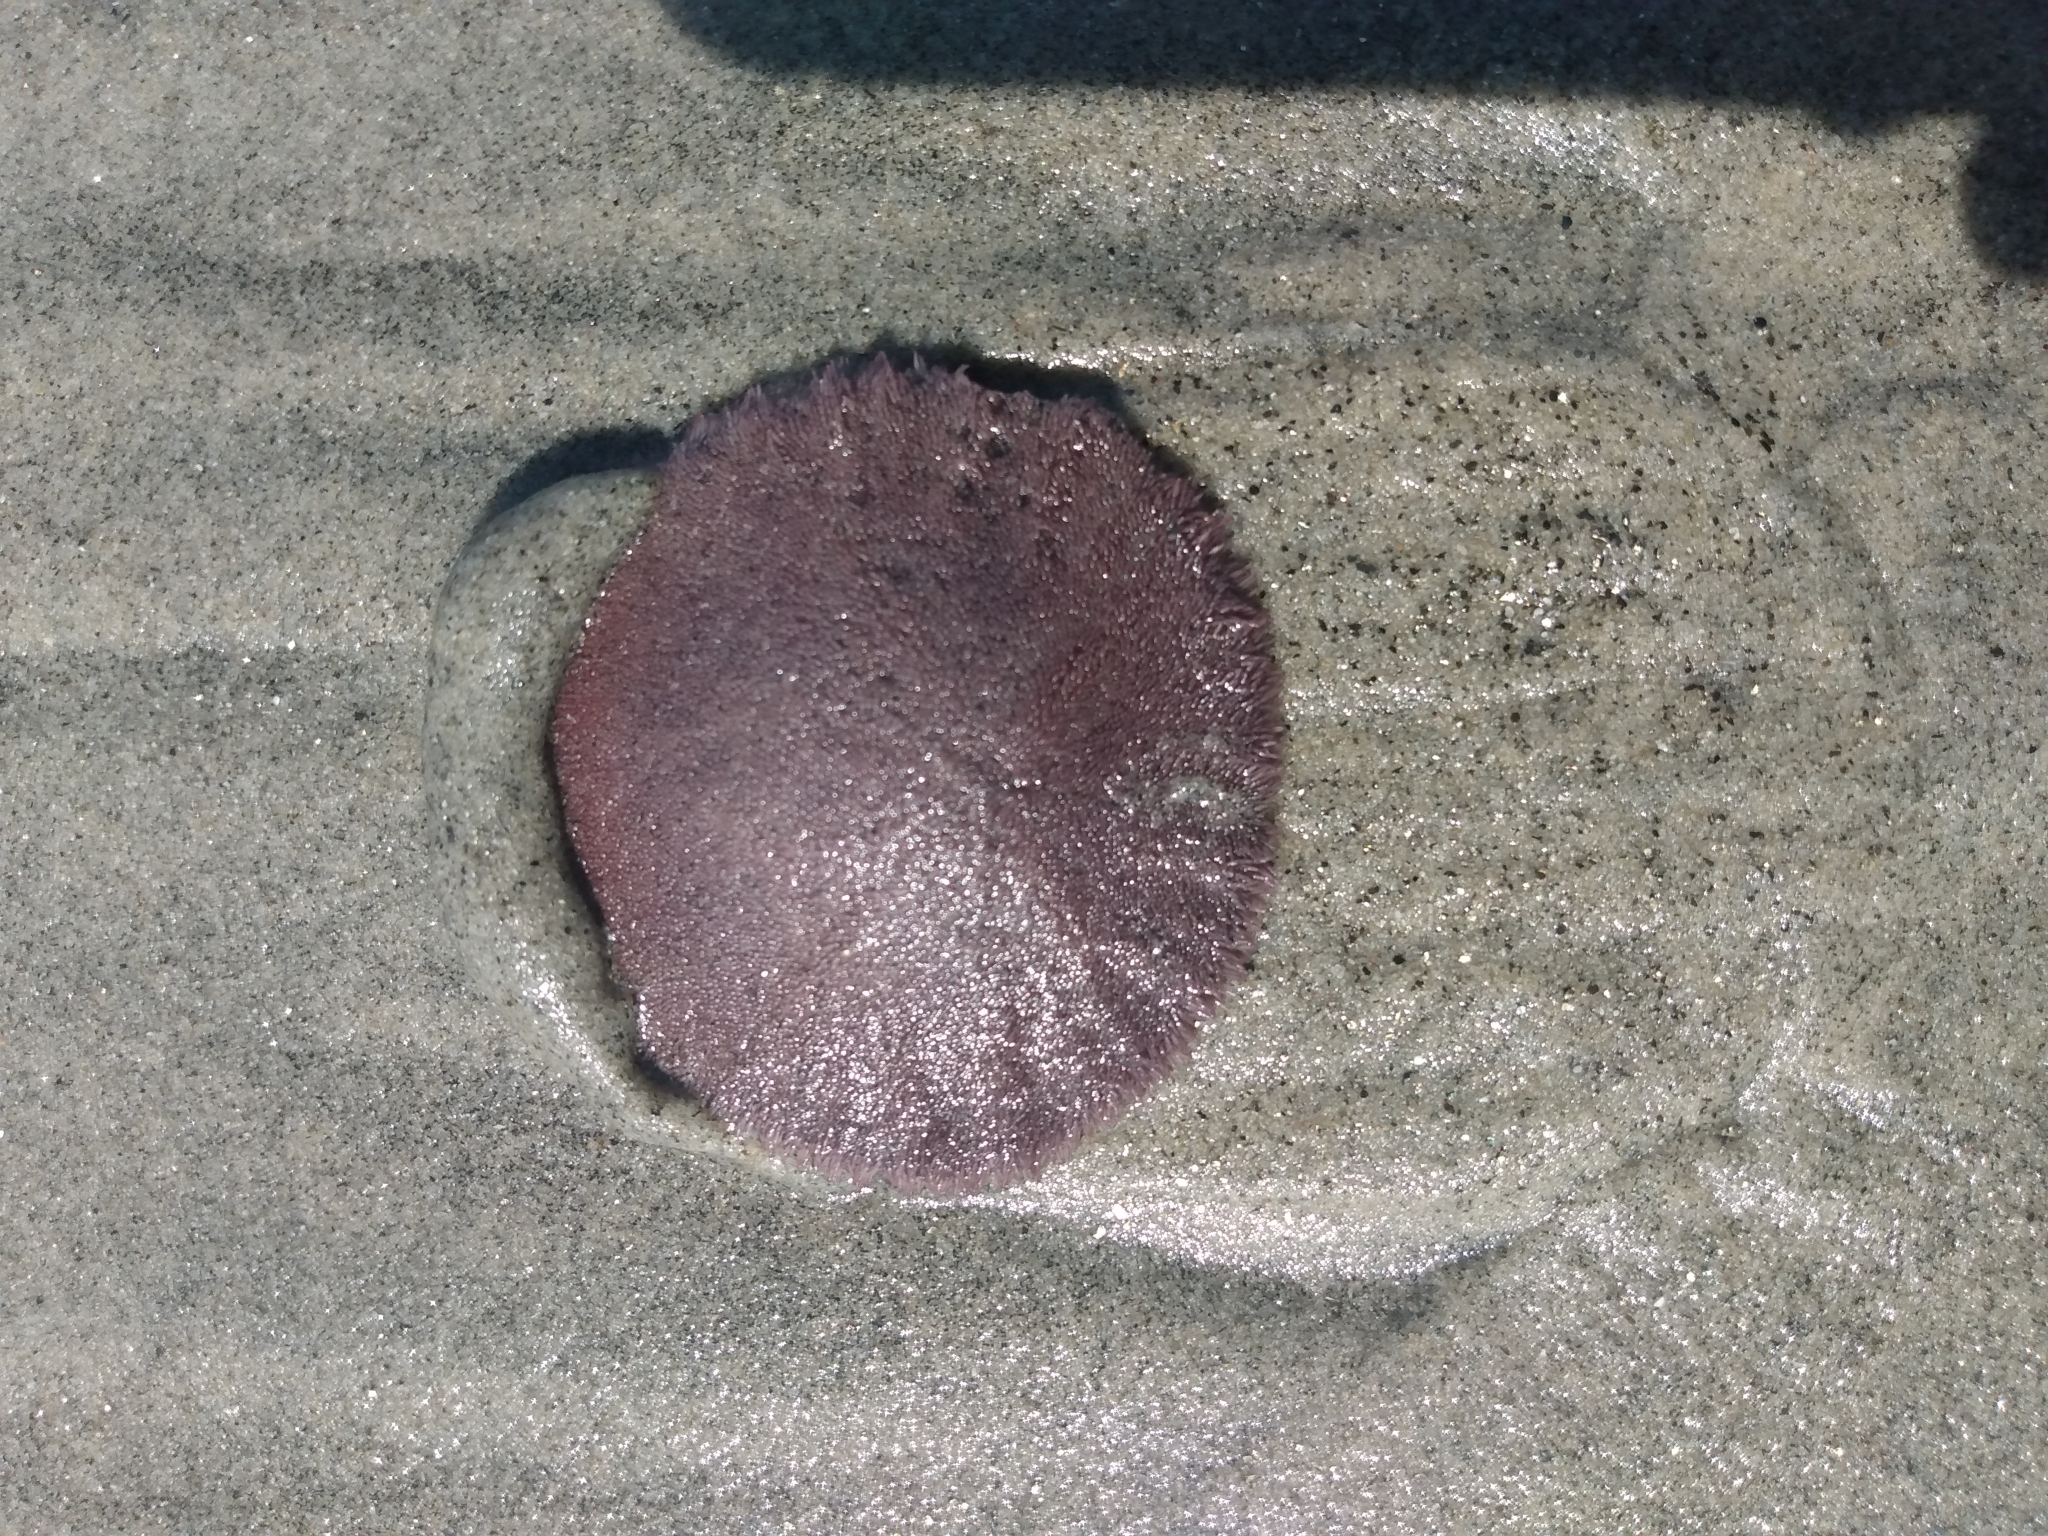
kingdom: Animalia
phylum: Echinodermata
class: Echinoidea
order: Echinolampadacea
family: Dendrasteridae
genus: Dendraster
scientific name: Dendraster excentricus
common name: Eccentric sand dollar sea urchin
